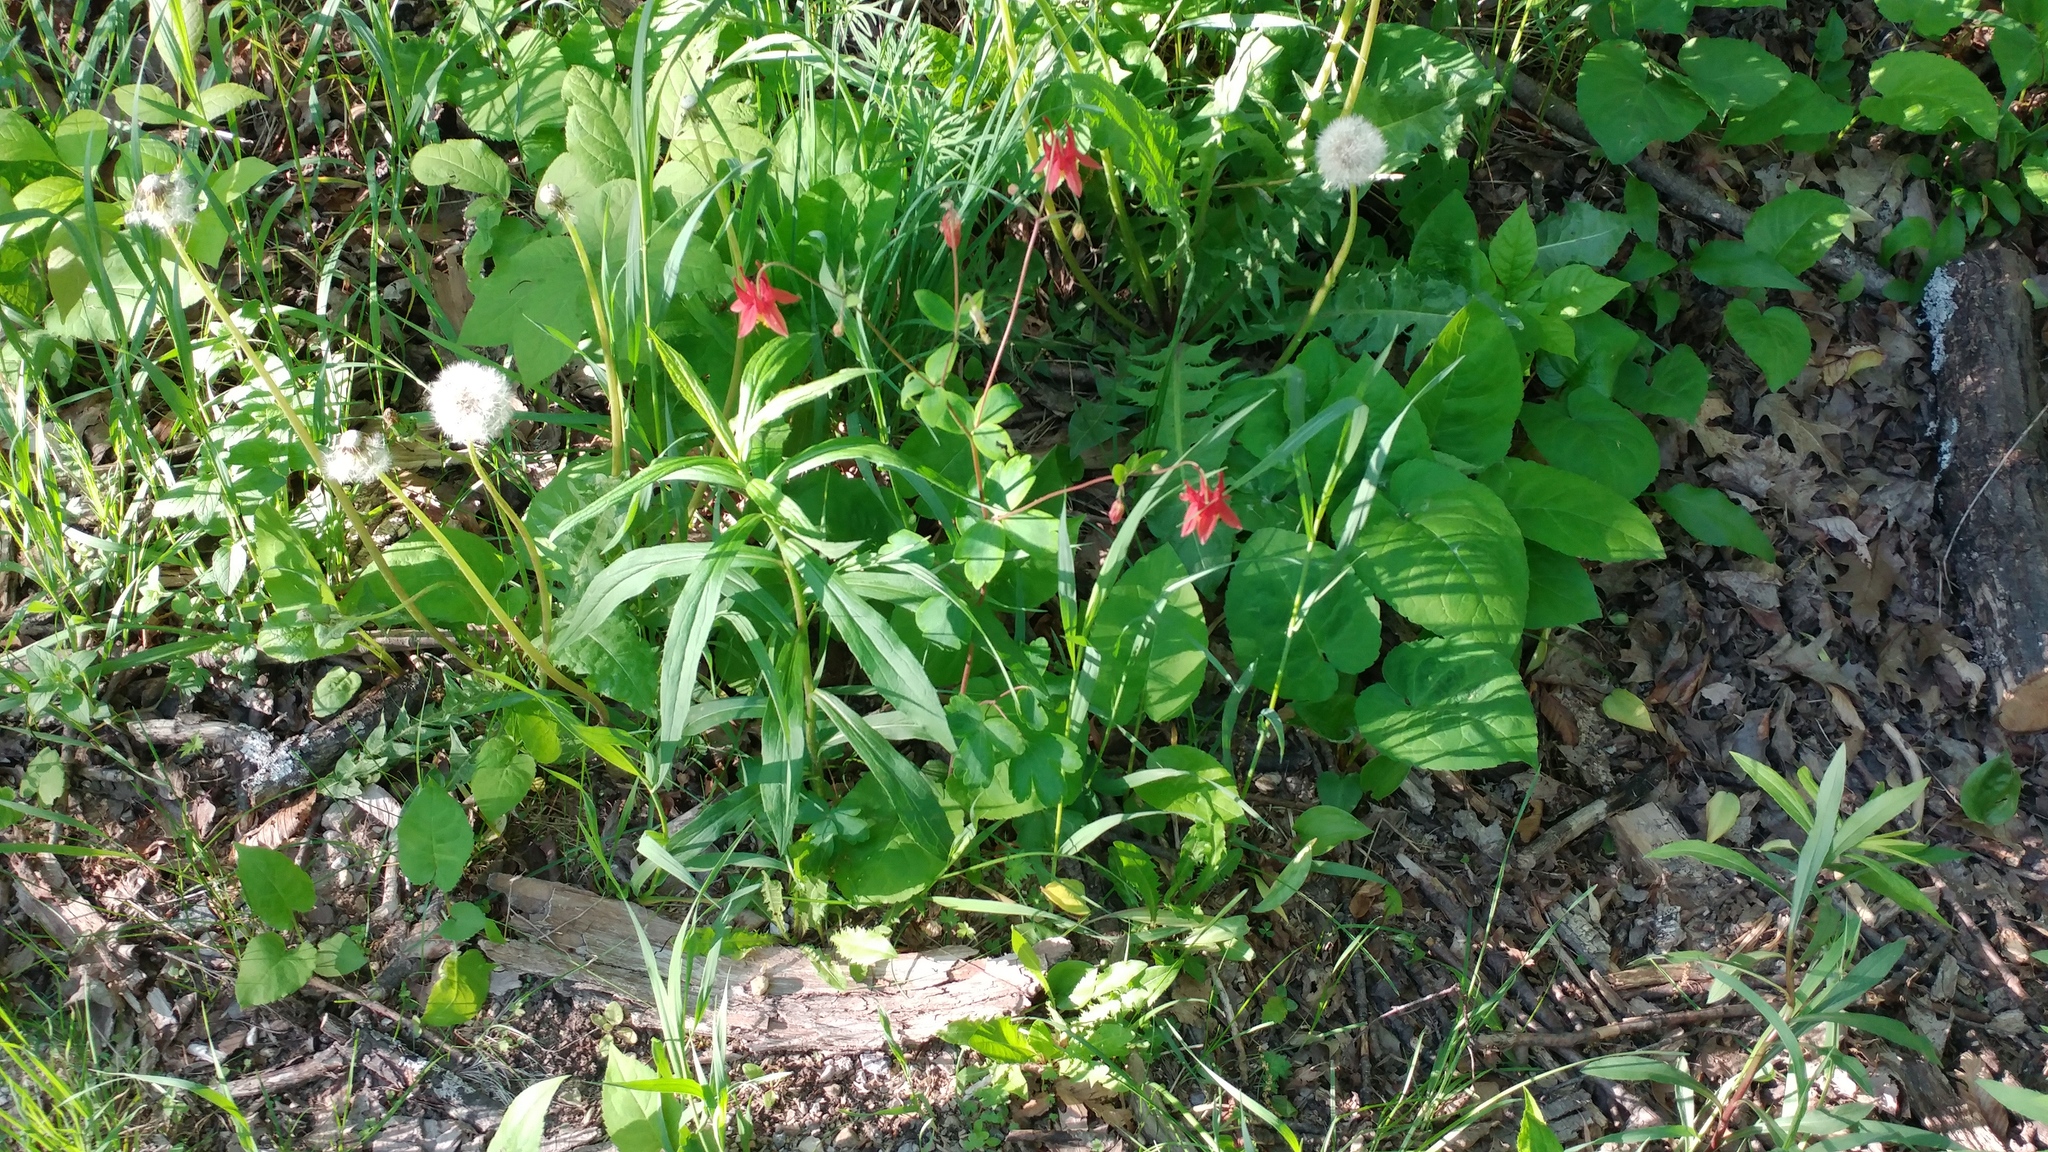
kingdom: Plantae
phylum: Tracheophyta
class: Magnoliopsida
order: Ranunculales
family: Ranunculaceae
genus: Aquilegia
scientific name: Aquilegia canadensis
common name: American columbine
